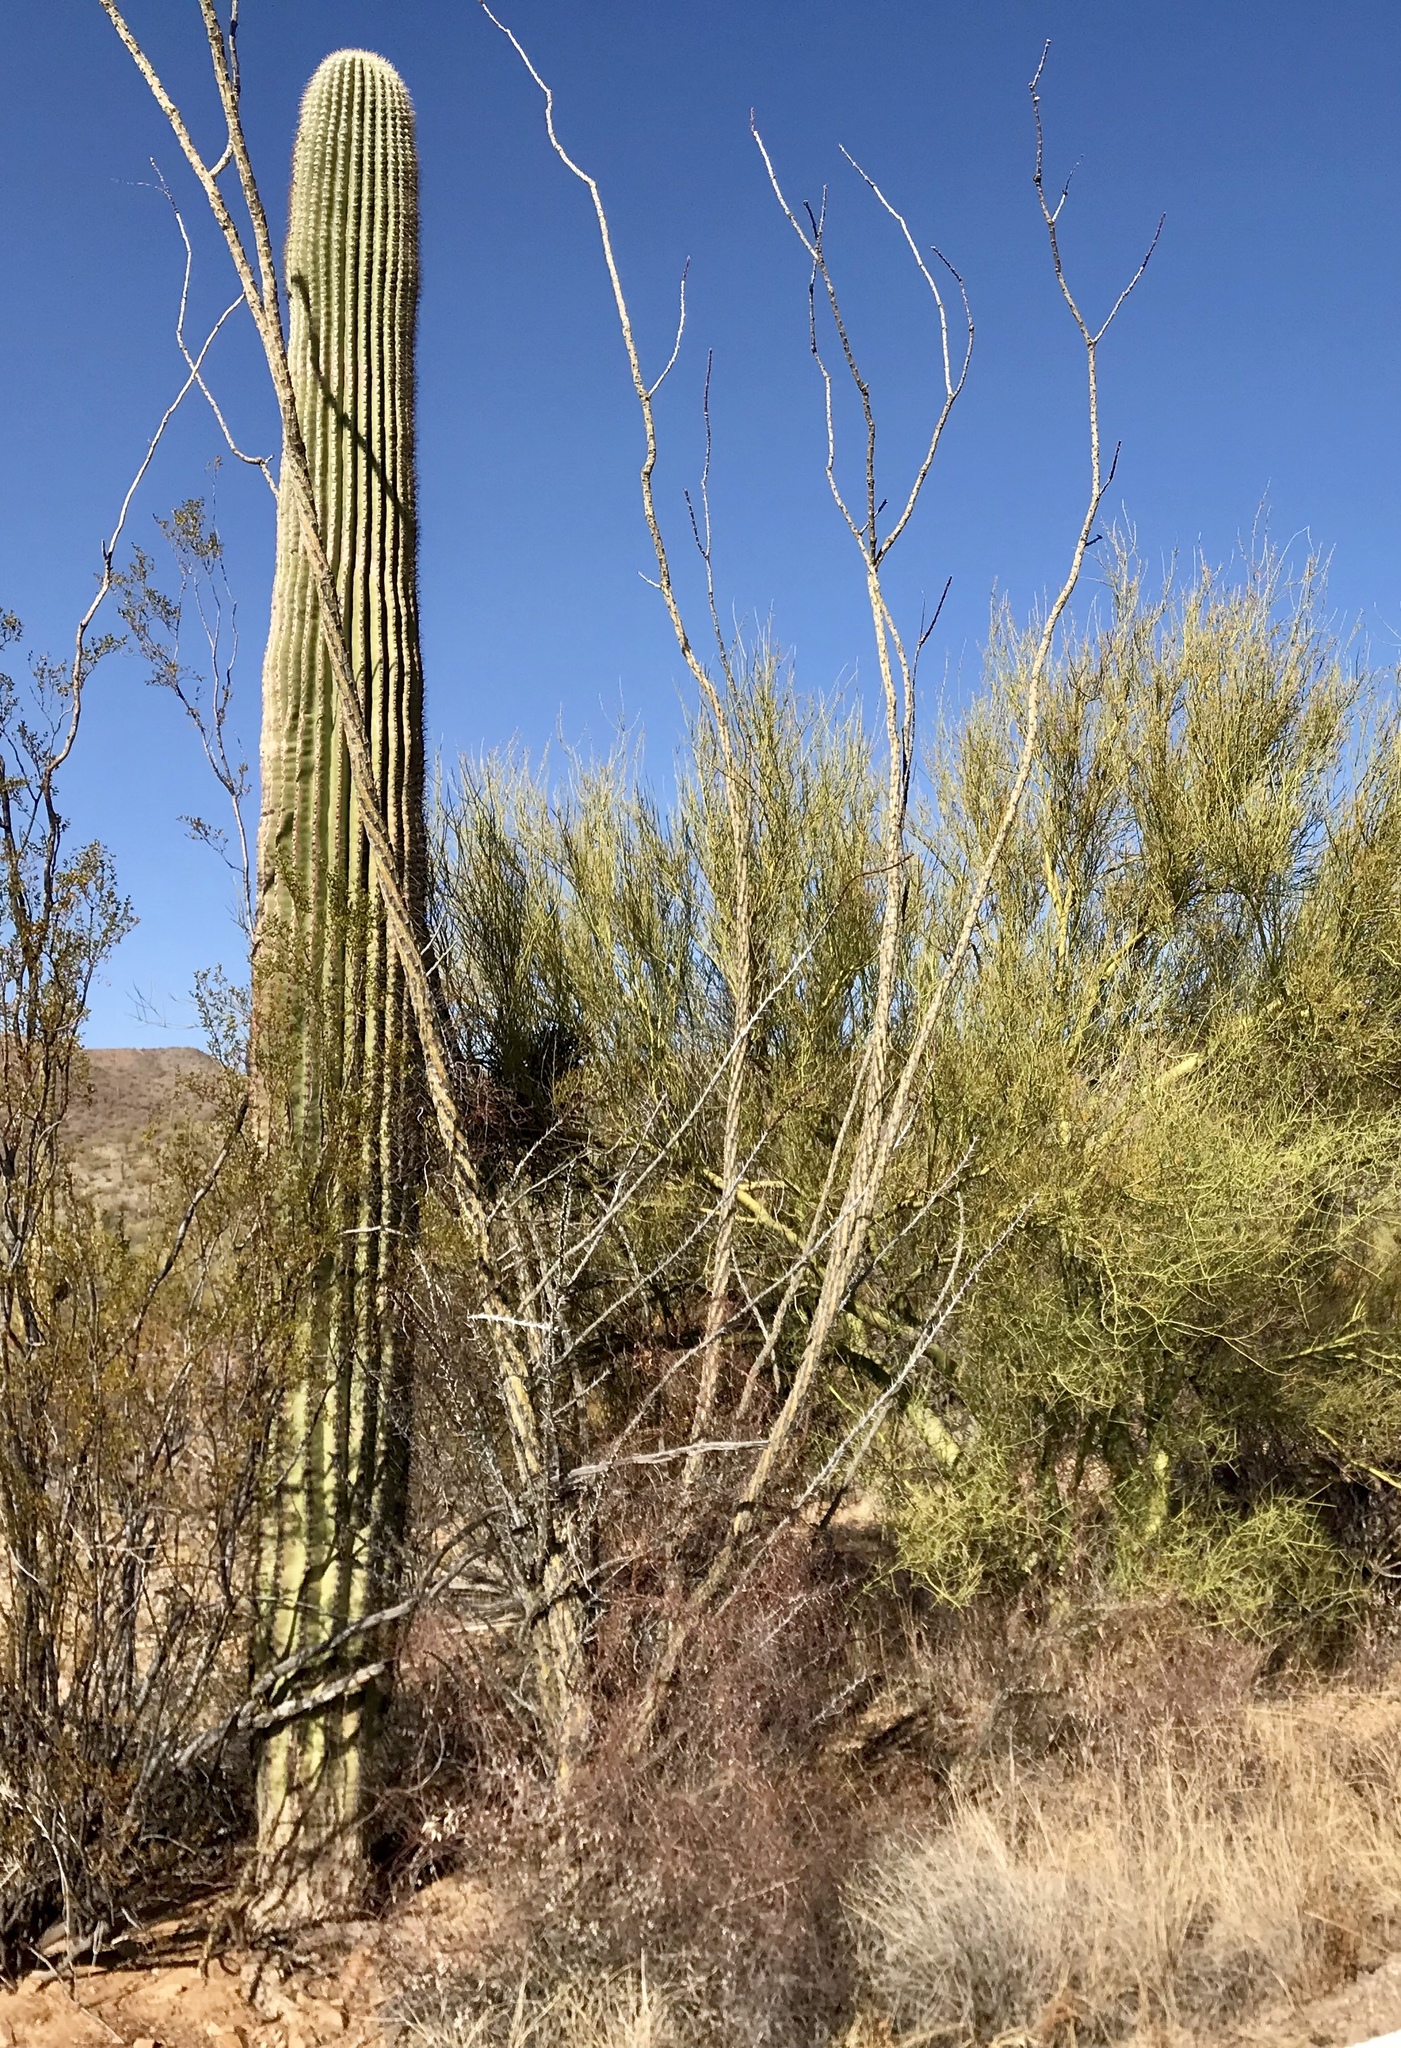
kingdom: Plantae
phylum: Tracheophyta
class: Magnoliopsida
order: Ericales
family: Fouquieriaceae
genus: Fouquieria
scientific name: Fouquieria splendens
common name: Vine-cactus
